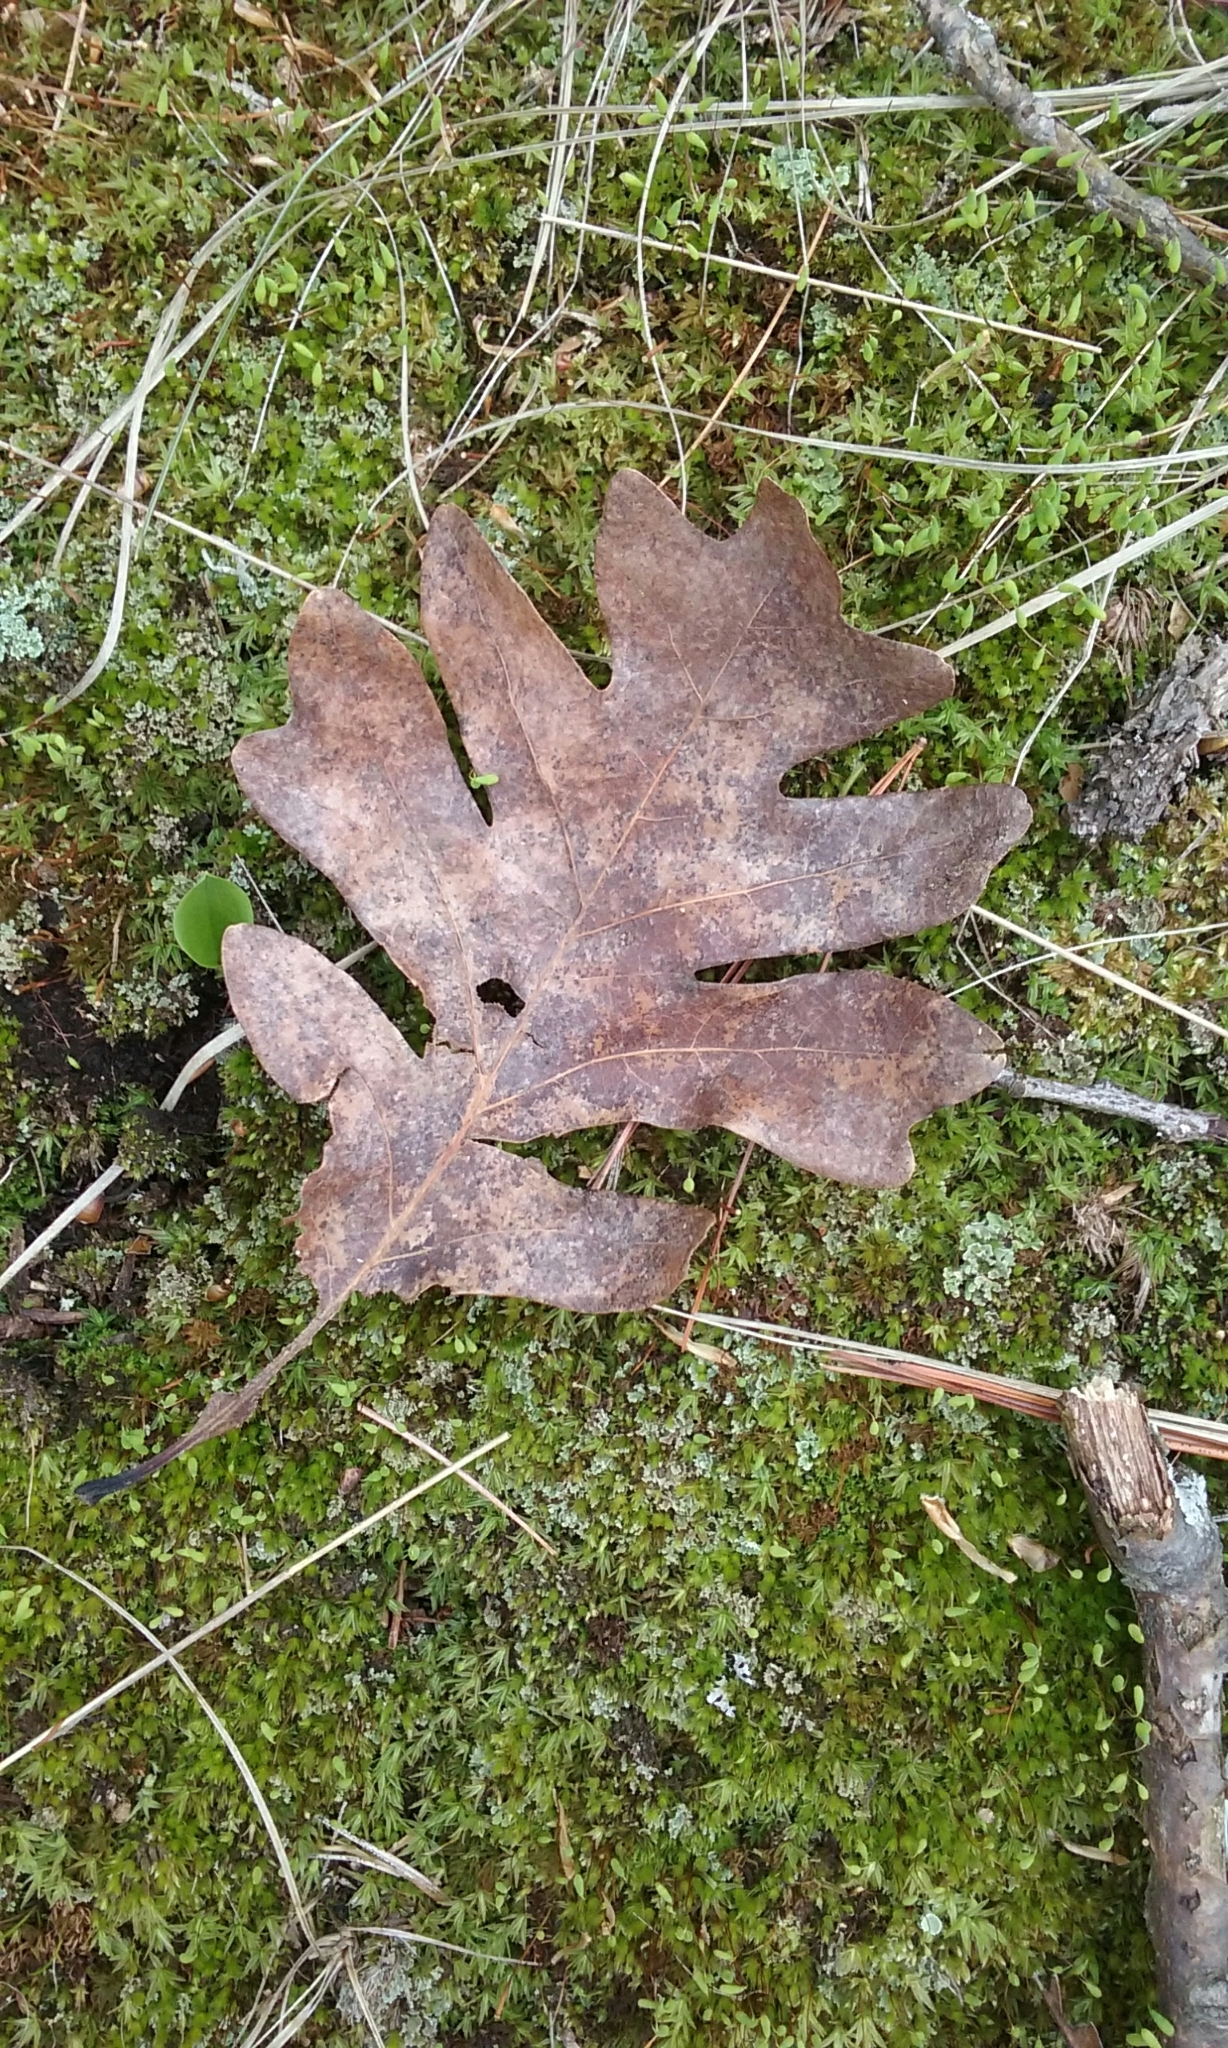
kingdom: Plantae
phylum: Tracheophyta
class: Magnoliopsida
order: Fagales
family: Fagaceae
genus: Quercus
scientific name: Quercus alba
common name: White oak
